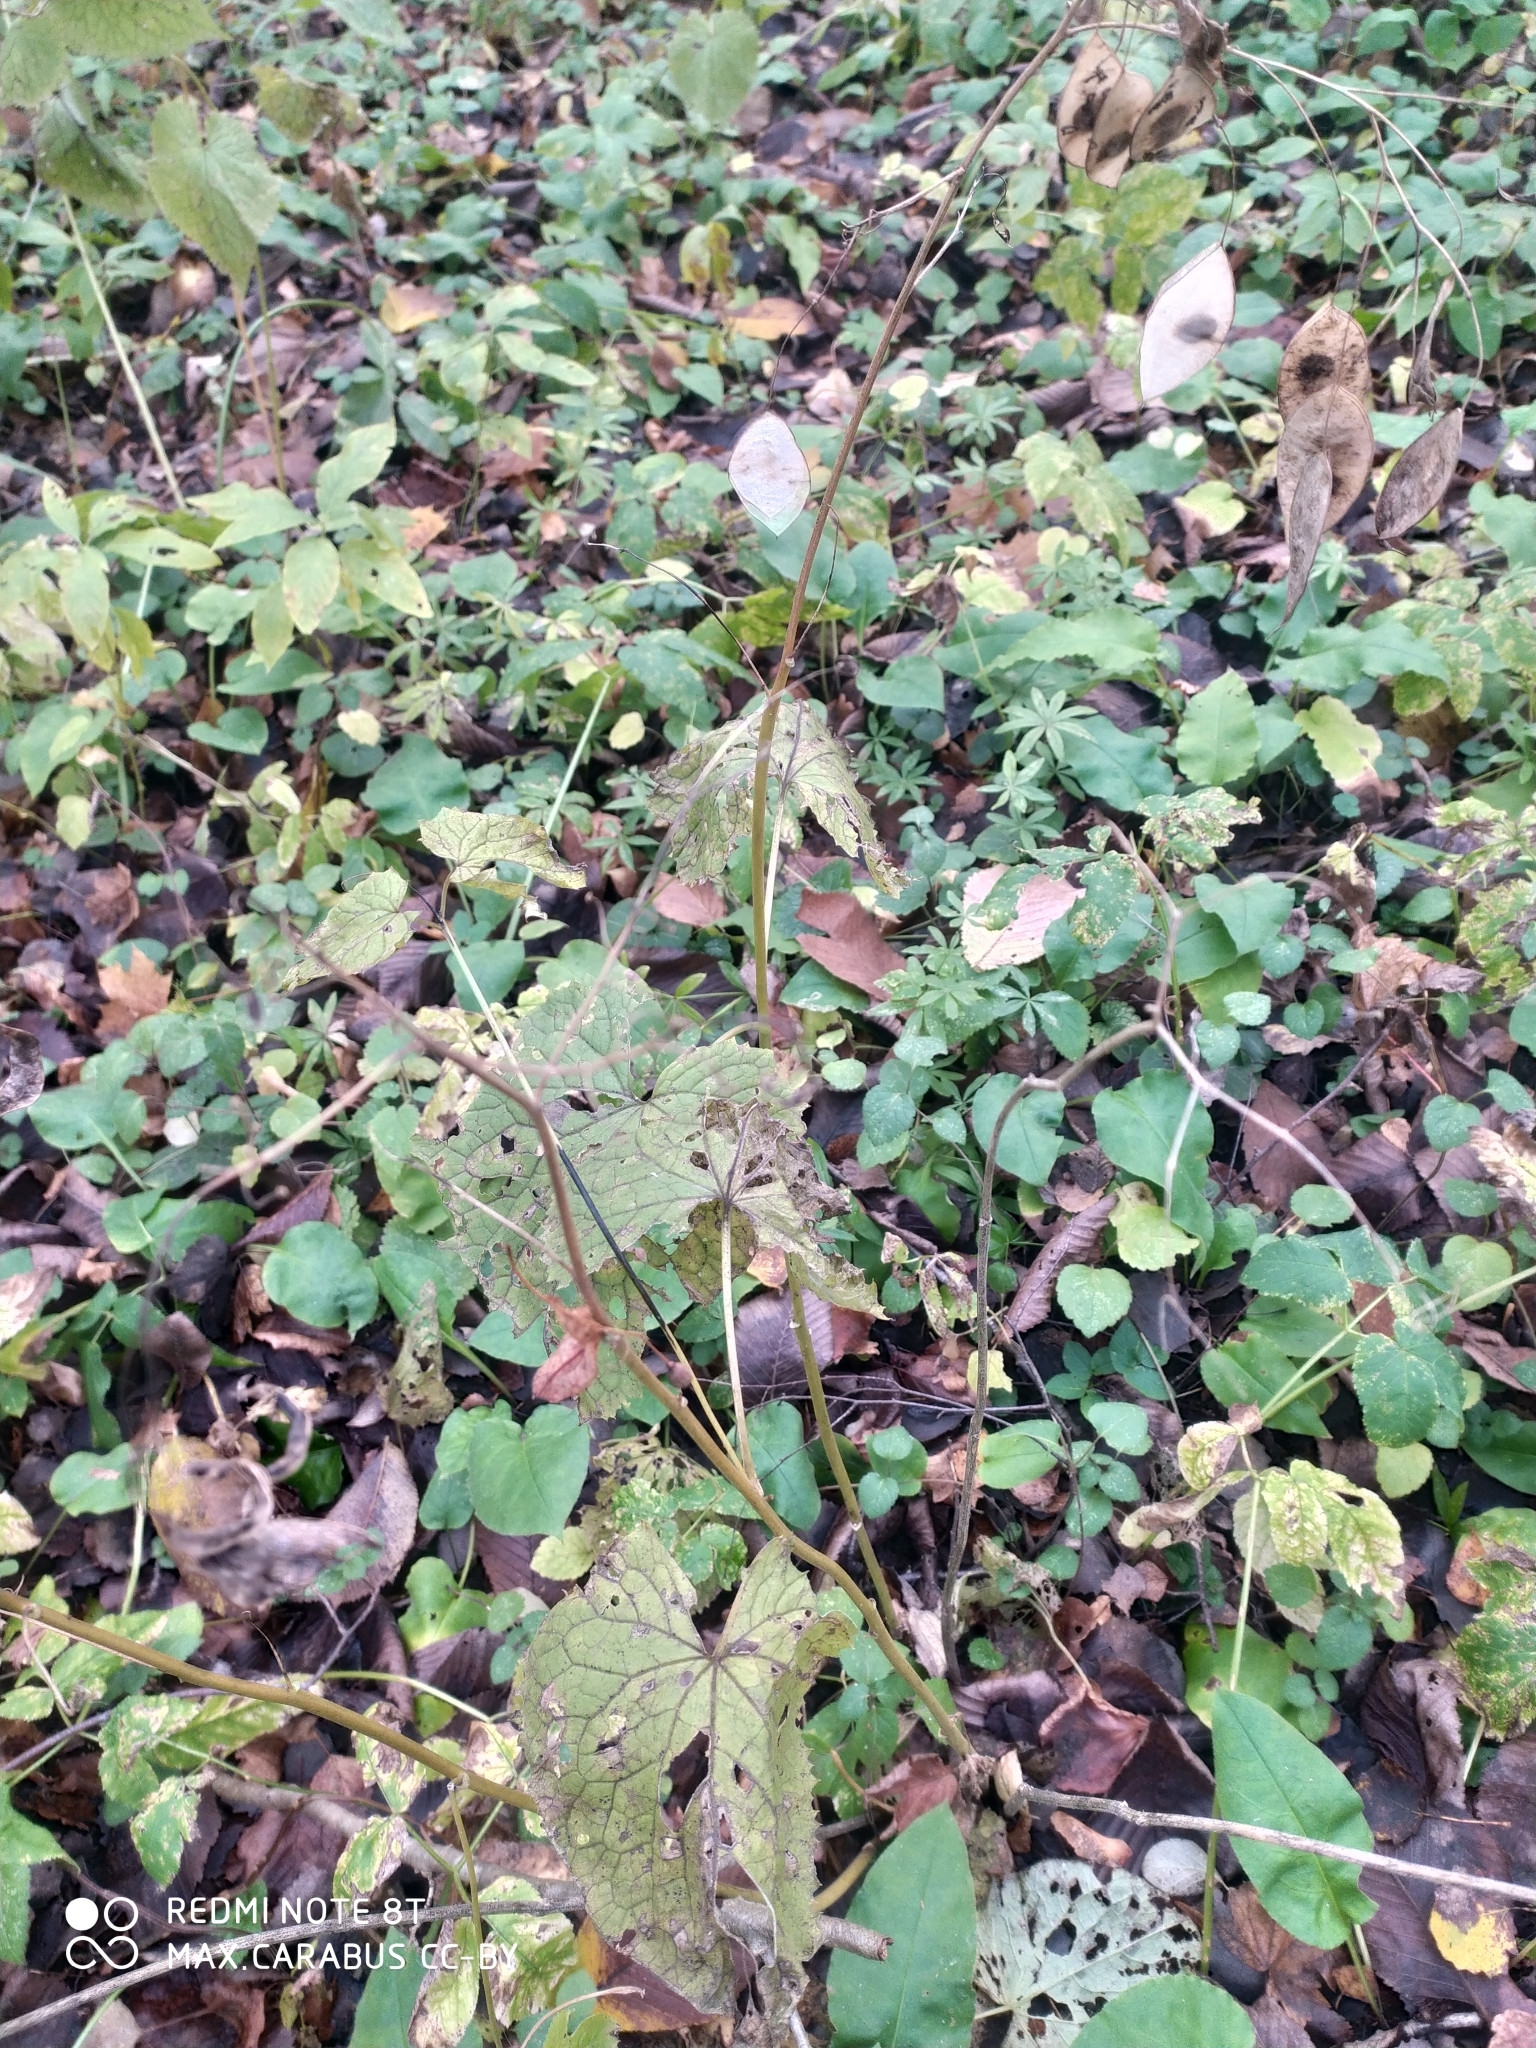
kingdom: Plantae
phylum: Tracheophyta
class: Magnoliopsida
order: Brassicales
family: Brassicaceae
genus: Lunaria
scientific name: Lunaria rediviva
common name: Perennial honesty
